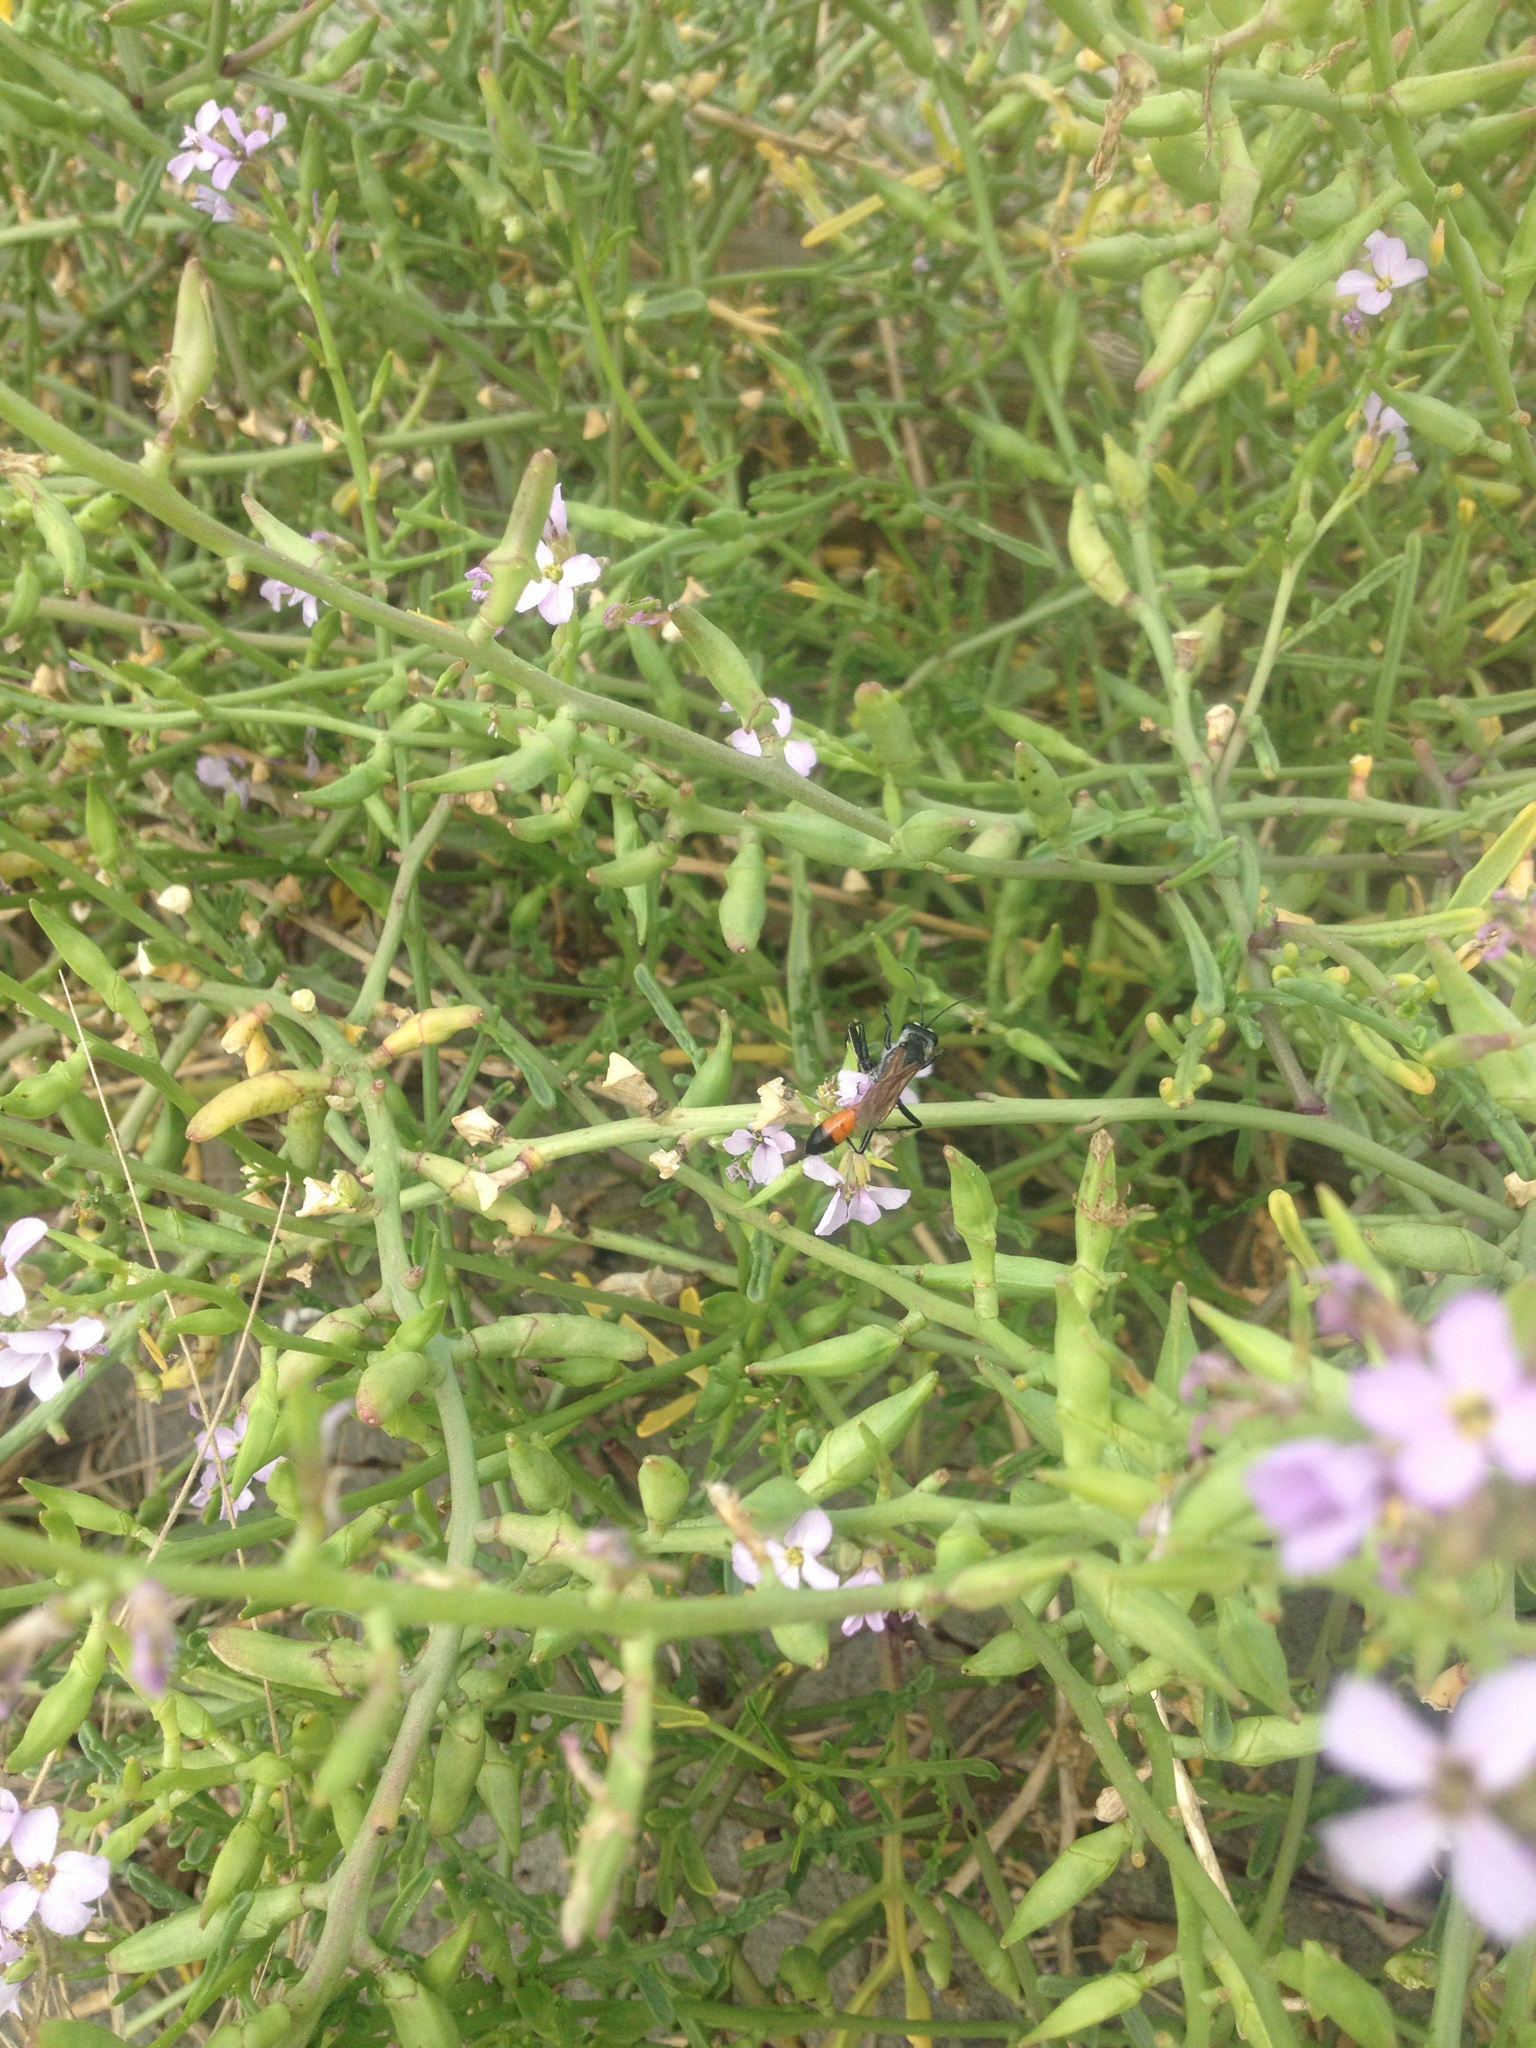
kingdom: Animalia
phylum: Arthropoda
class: Insecta
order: Hymenoptera
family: Sphecidae
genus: Podalonia
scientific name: Podalonia tydei
